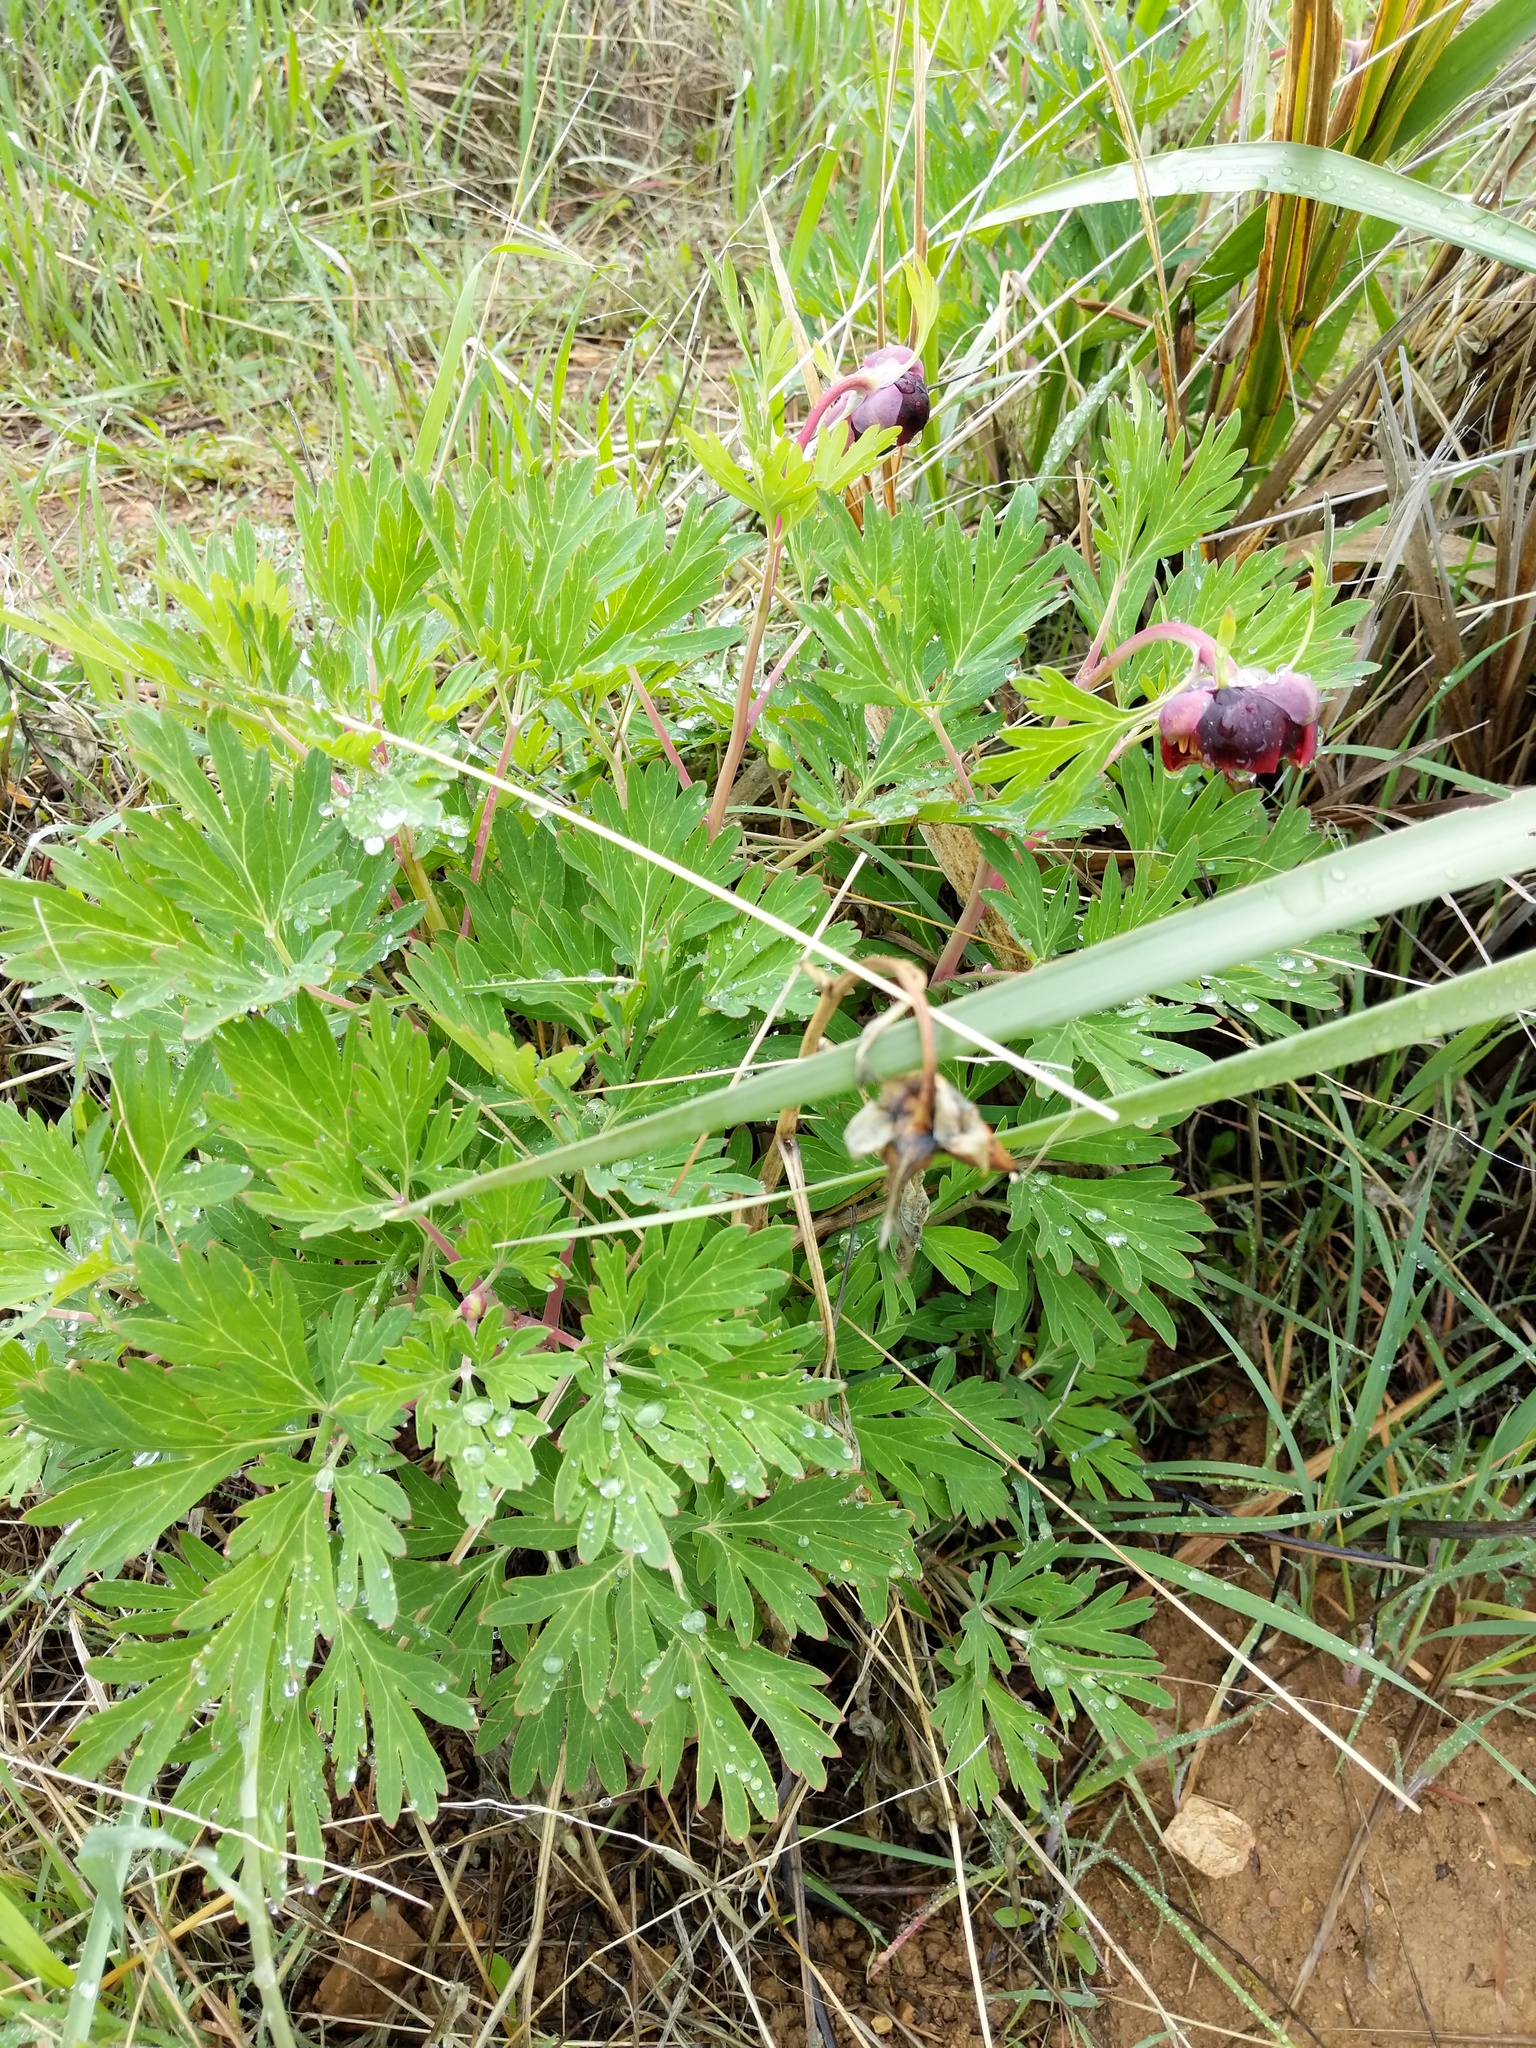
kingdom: Plantae
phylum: Tracheophyta
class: Magnoliopsida
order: Saxifragales
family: Paeoniaceae
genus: Paeonia
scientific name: Paeonia californica
